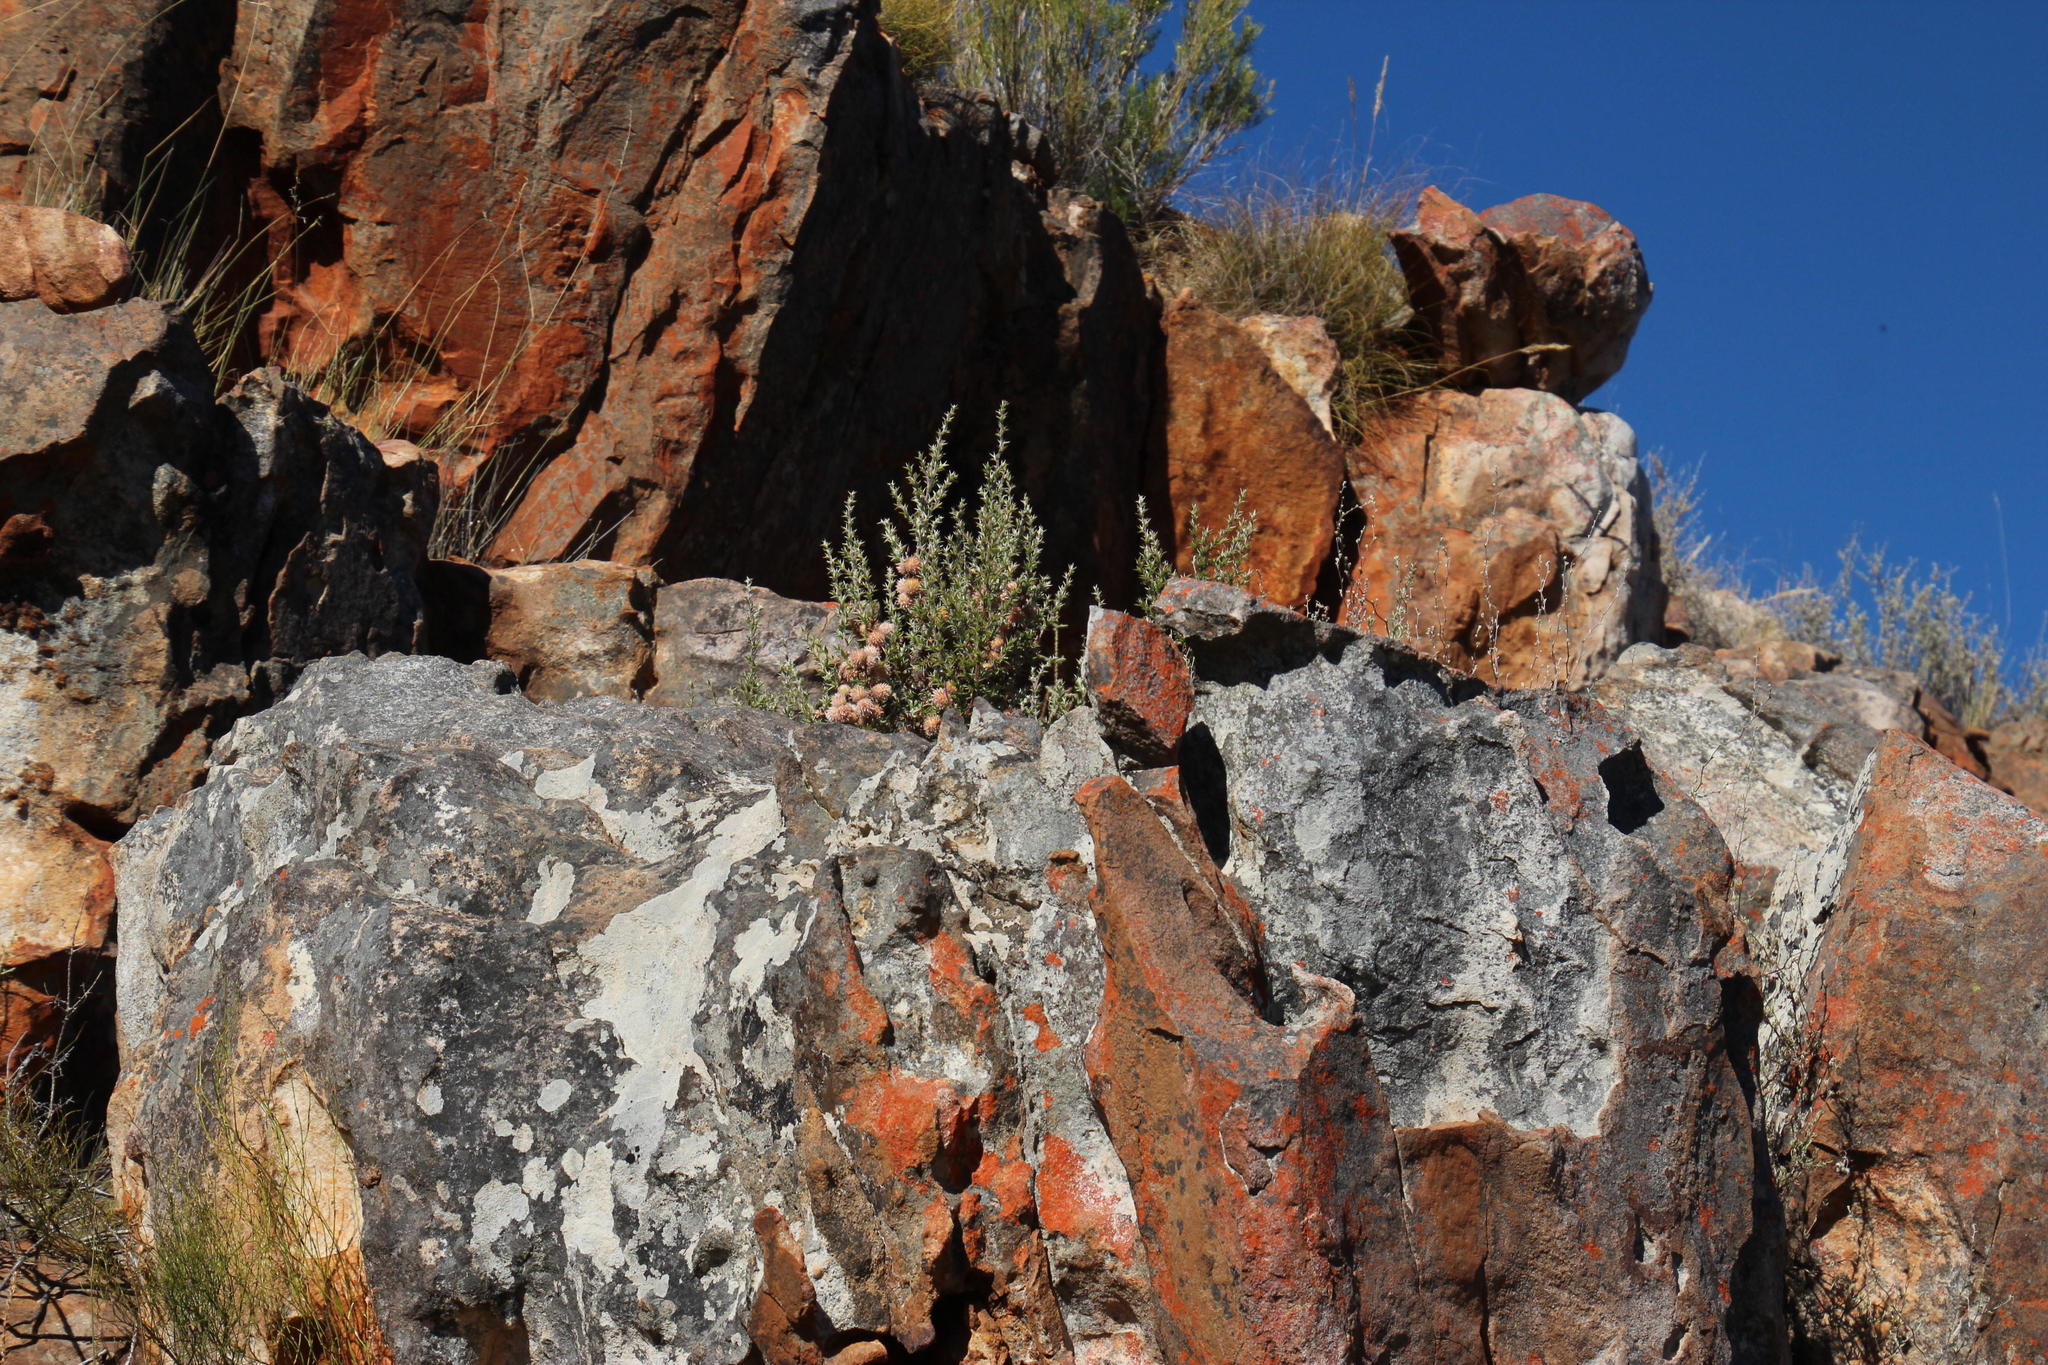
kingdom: Plantae
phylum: Tracheophyta
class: Magnoliopsida
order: Rosales
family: Rosaceae
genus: Cliffortia
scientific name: Cliffortia ruscifolia
